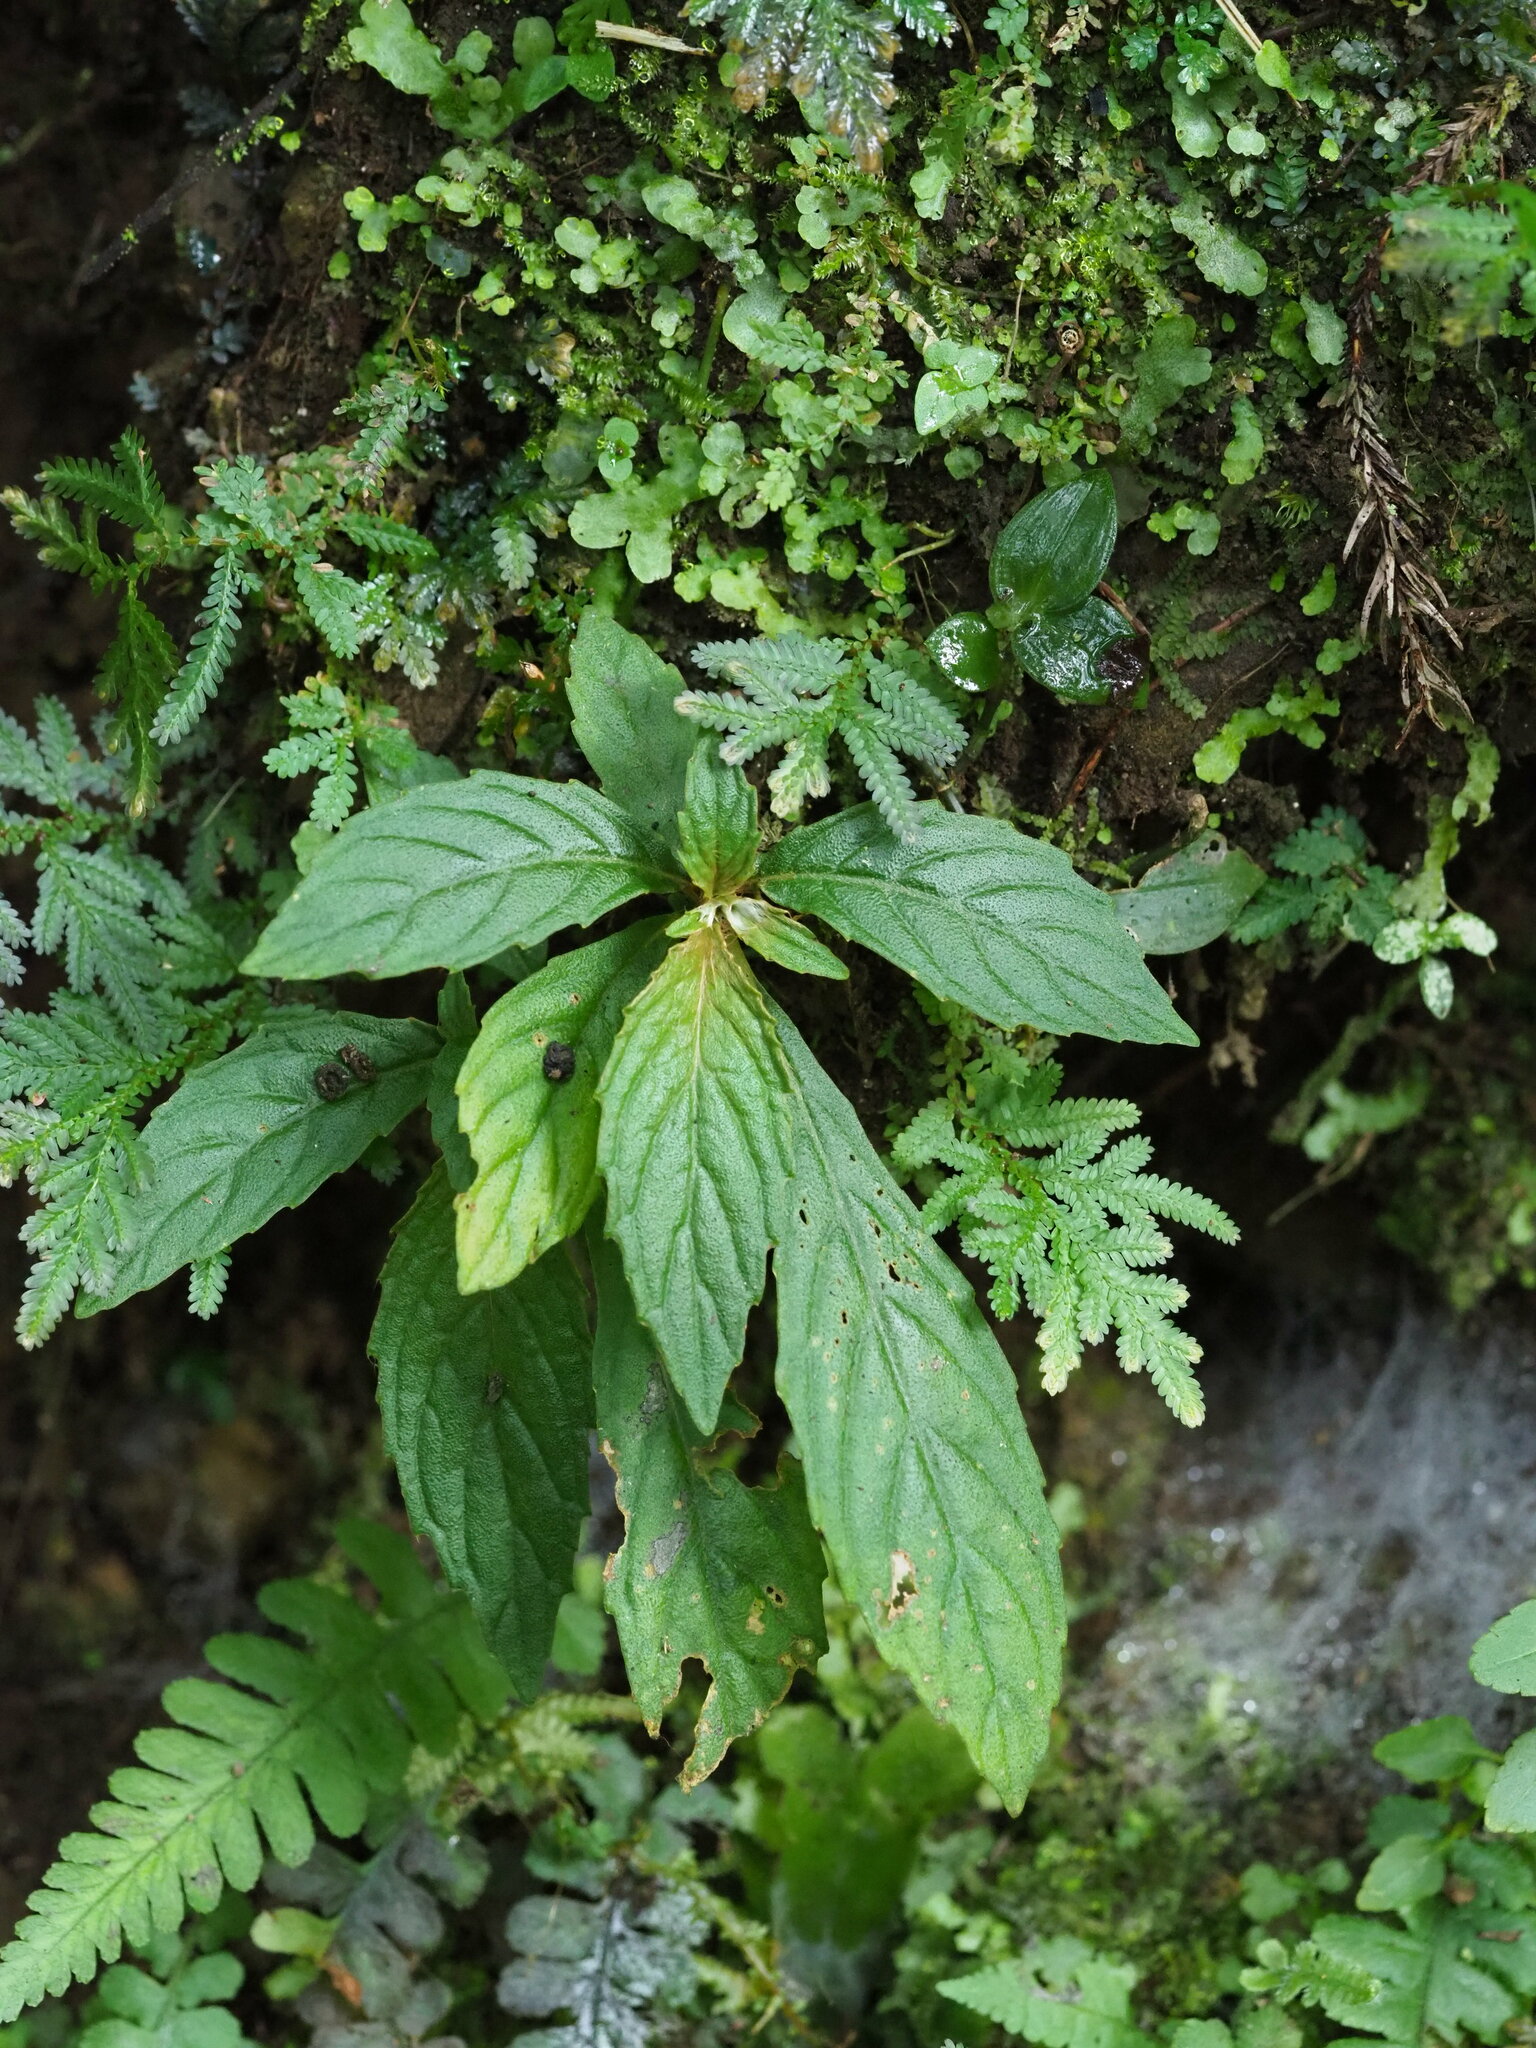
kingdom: Plantae
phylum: Tracheophyta
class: Magnoliopsida
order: Lamiales
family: Gesneriaceae
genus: Rhynchotechum
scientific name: Rhynchotechum discolor
